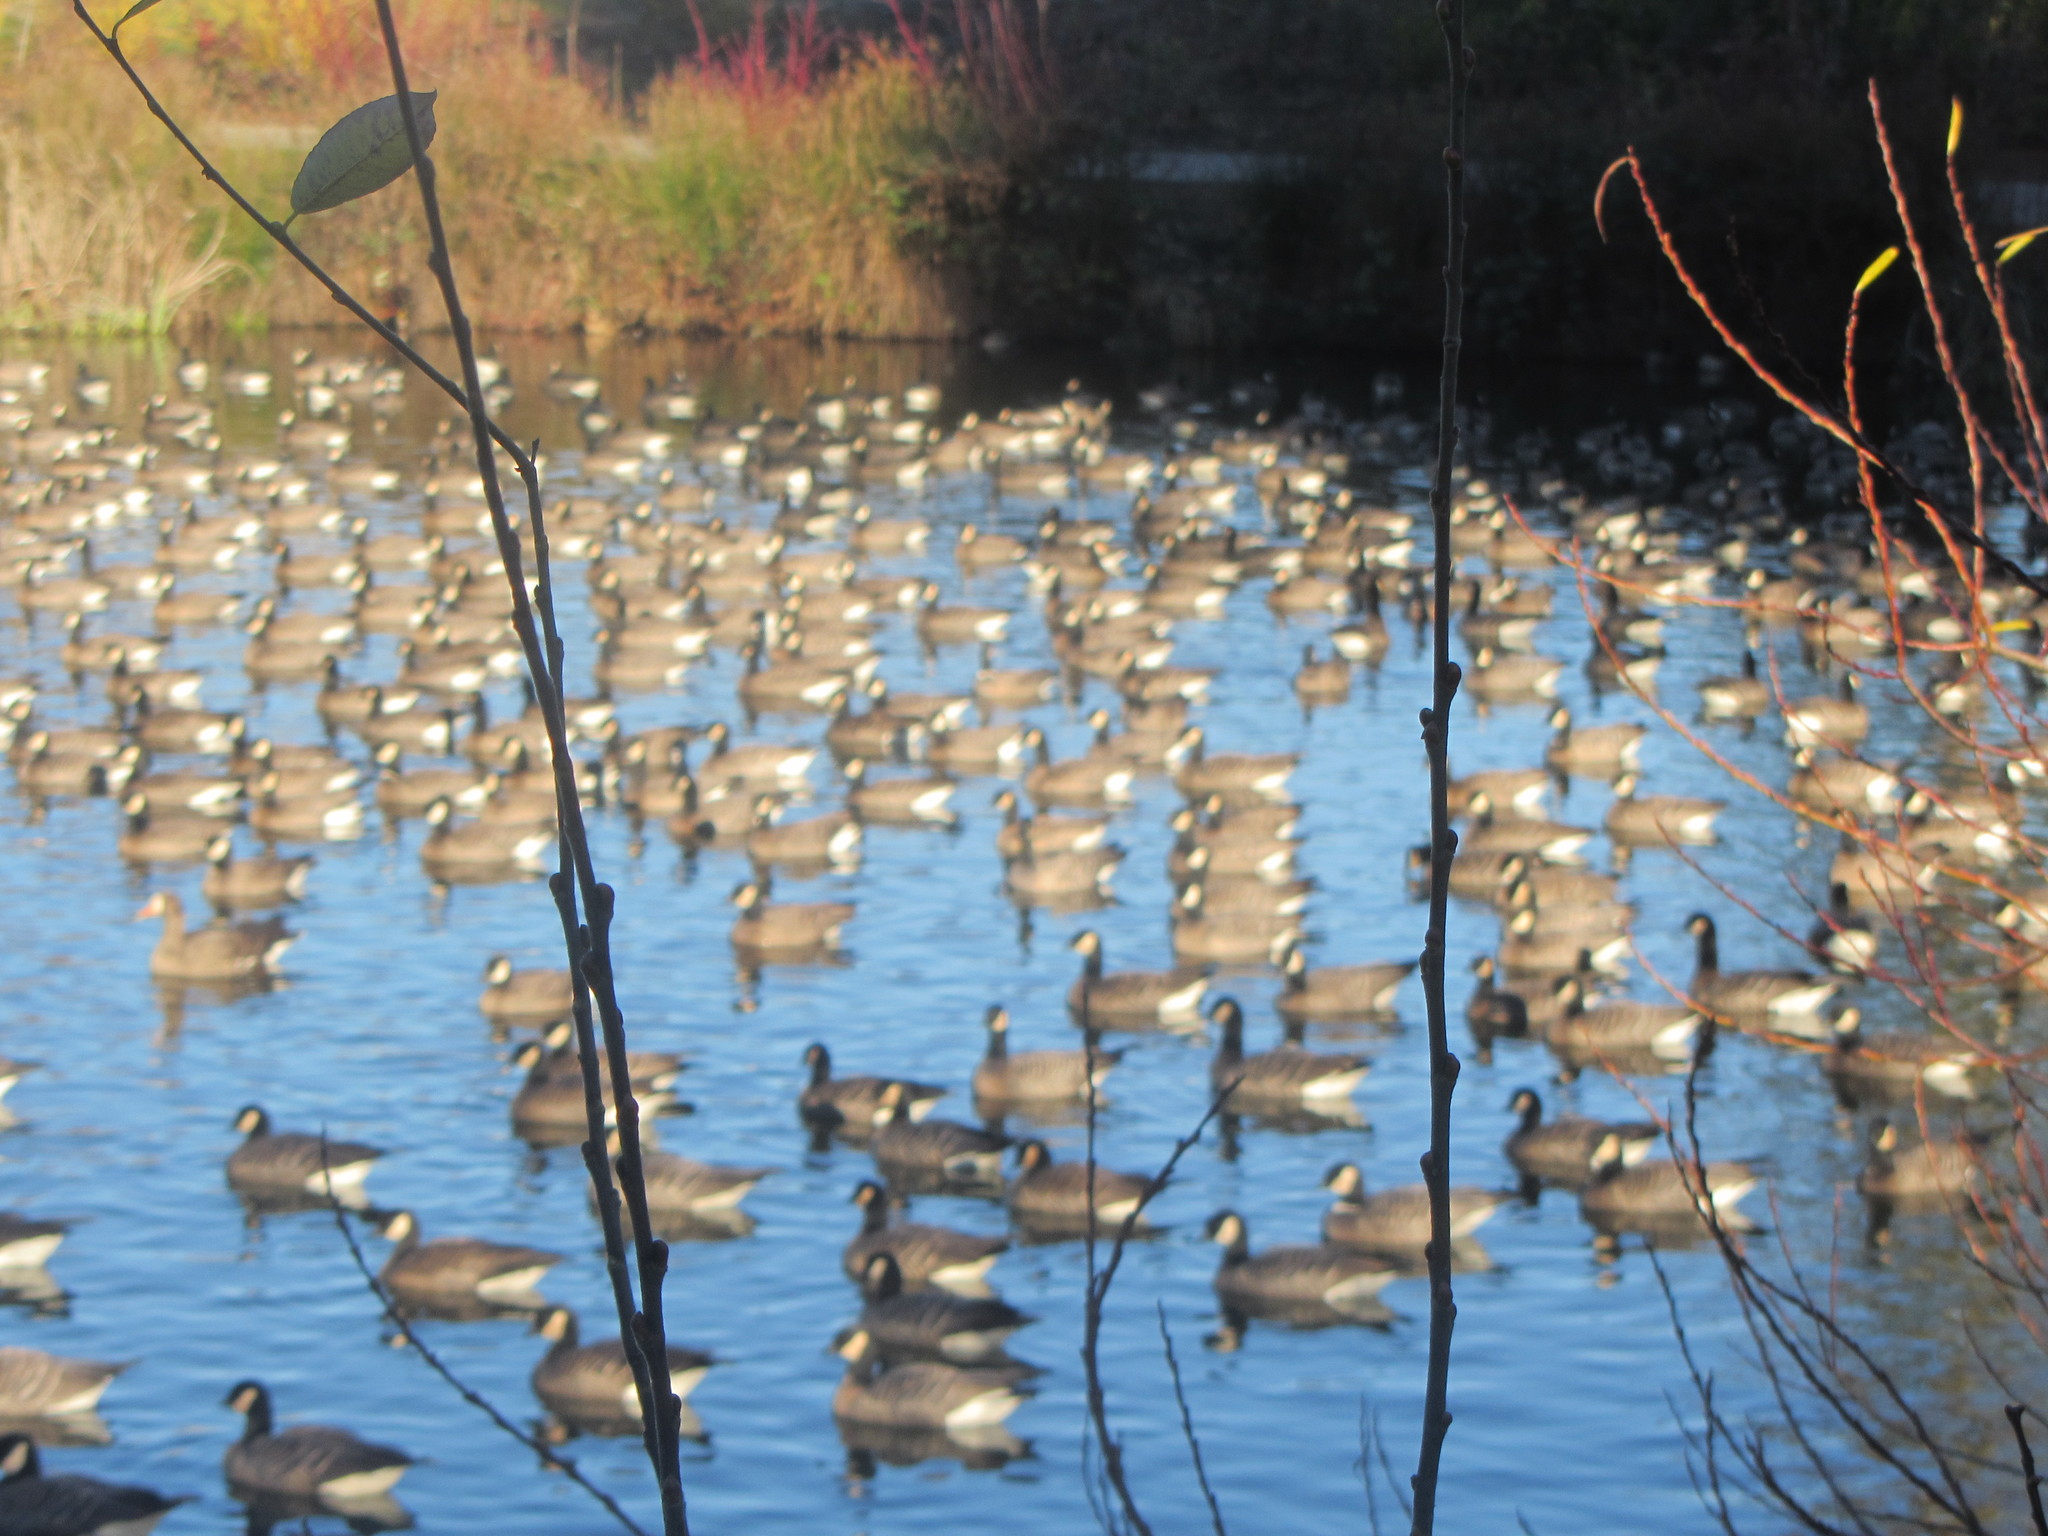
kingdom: Animalia
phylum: Chordata
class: Aves
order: Anseriformes
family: Anatidae
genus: Branta
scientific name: Branta hutchinsii
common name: Cackling goose
